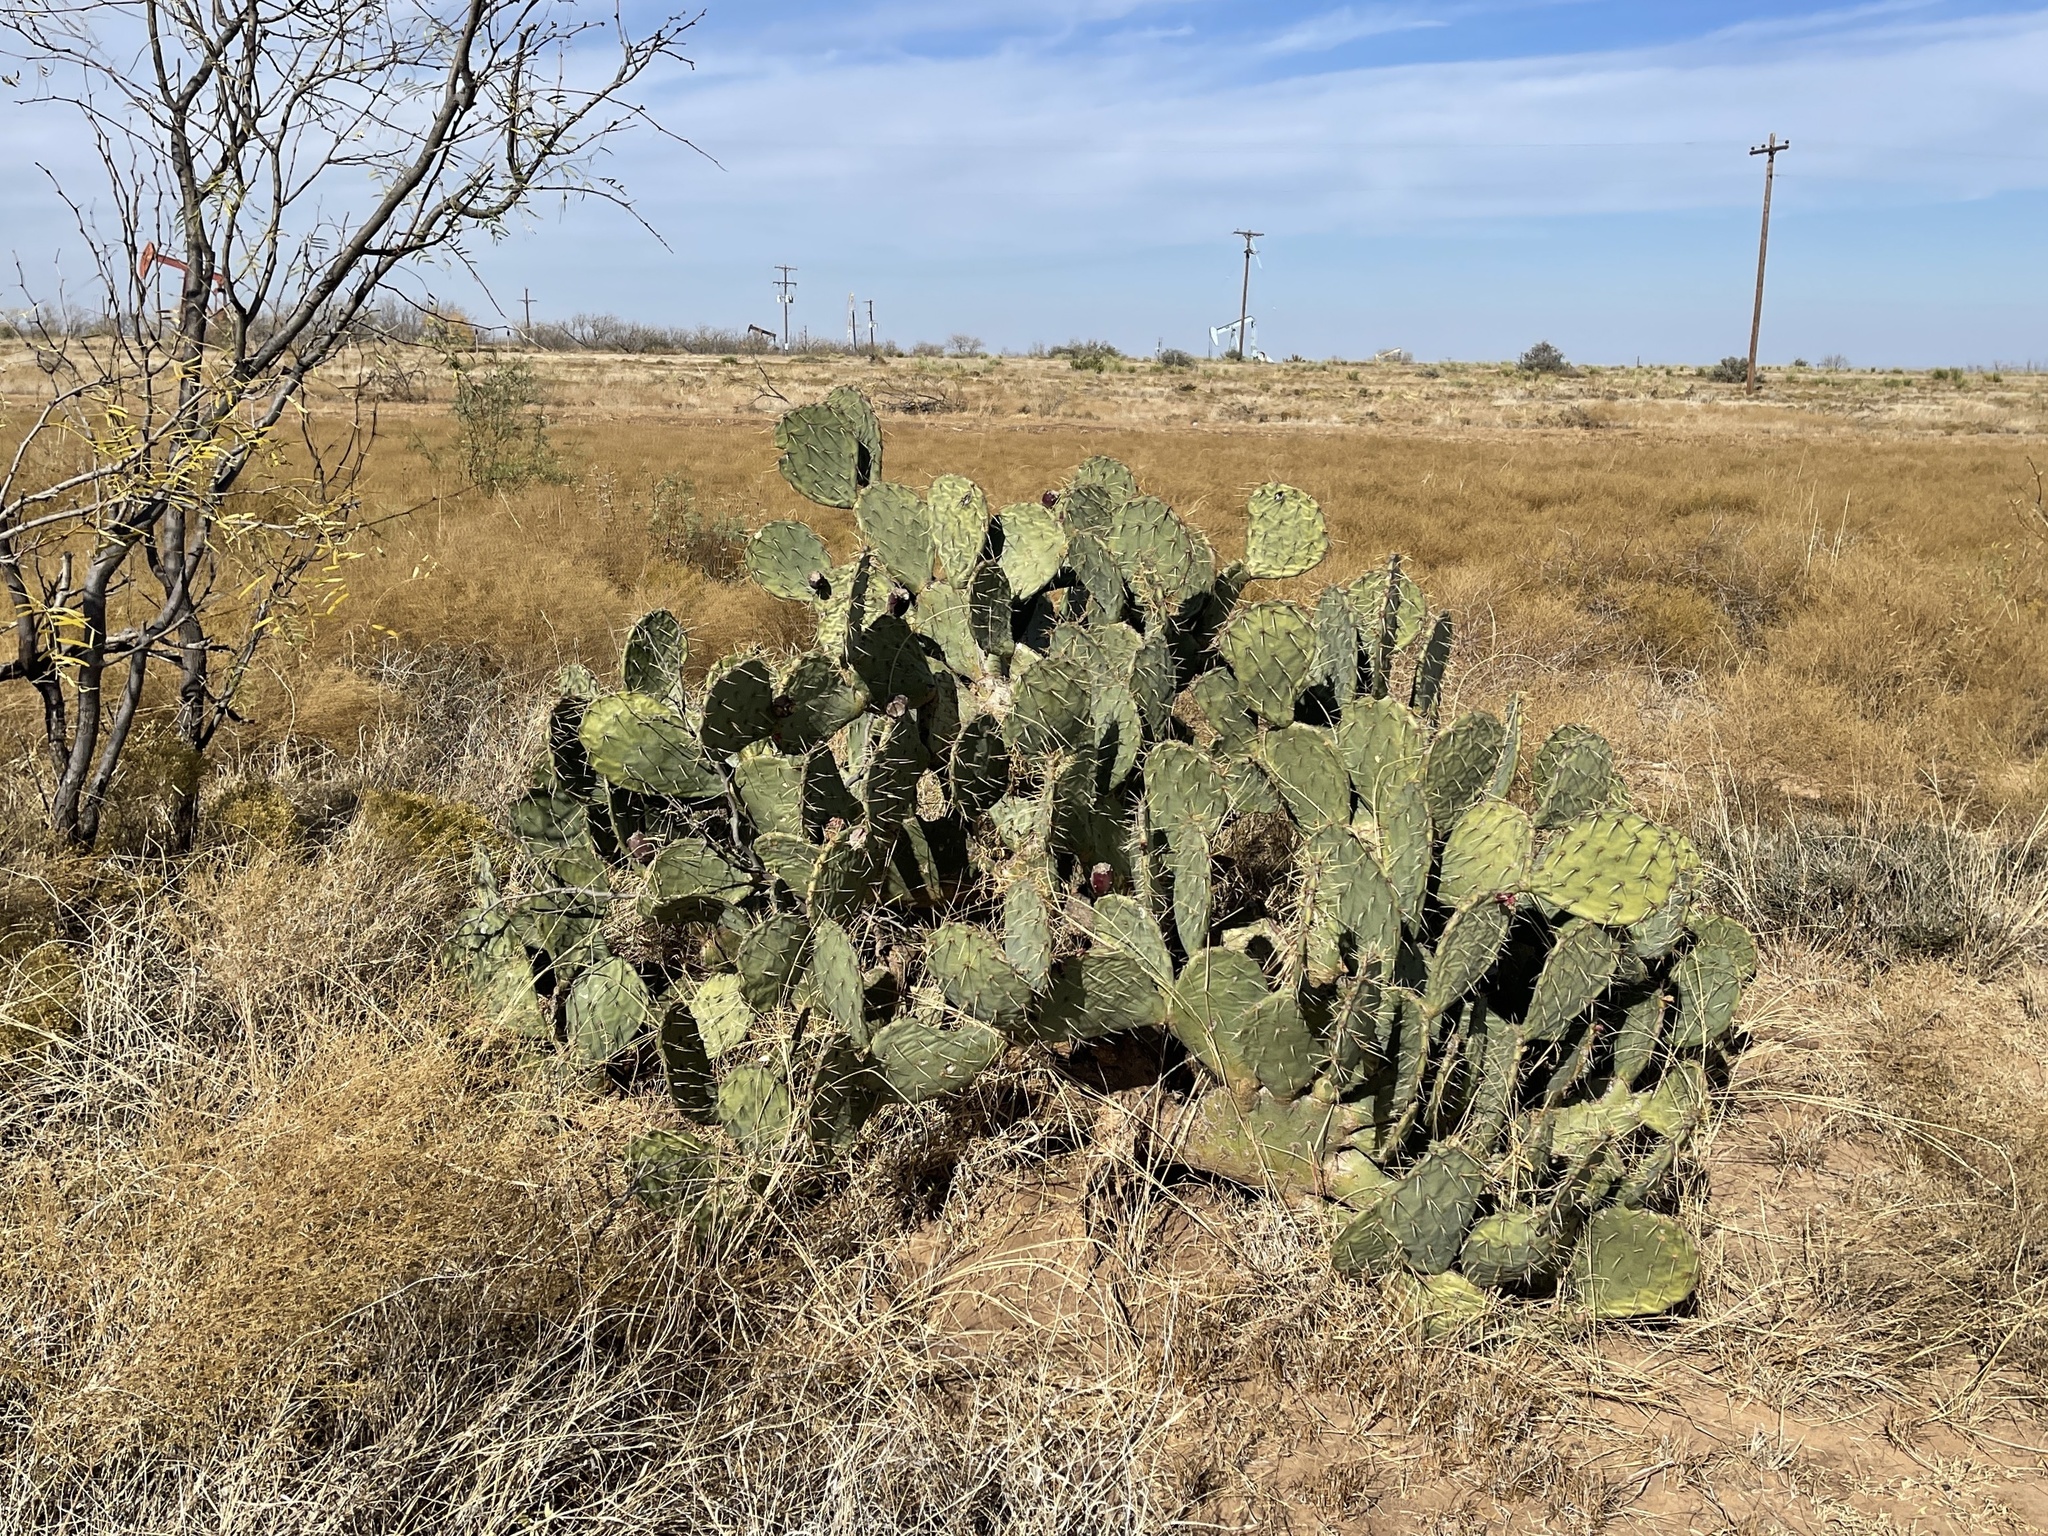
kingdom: Plantae
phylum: Tracheophyta
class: Magnoliopsida
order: Caryophyllales
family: Cactaceae
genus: Opuntia
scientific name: Opuntia engelmannii
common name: Cactus-apple
